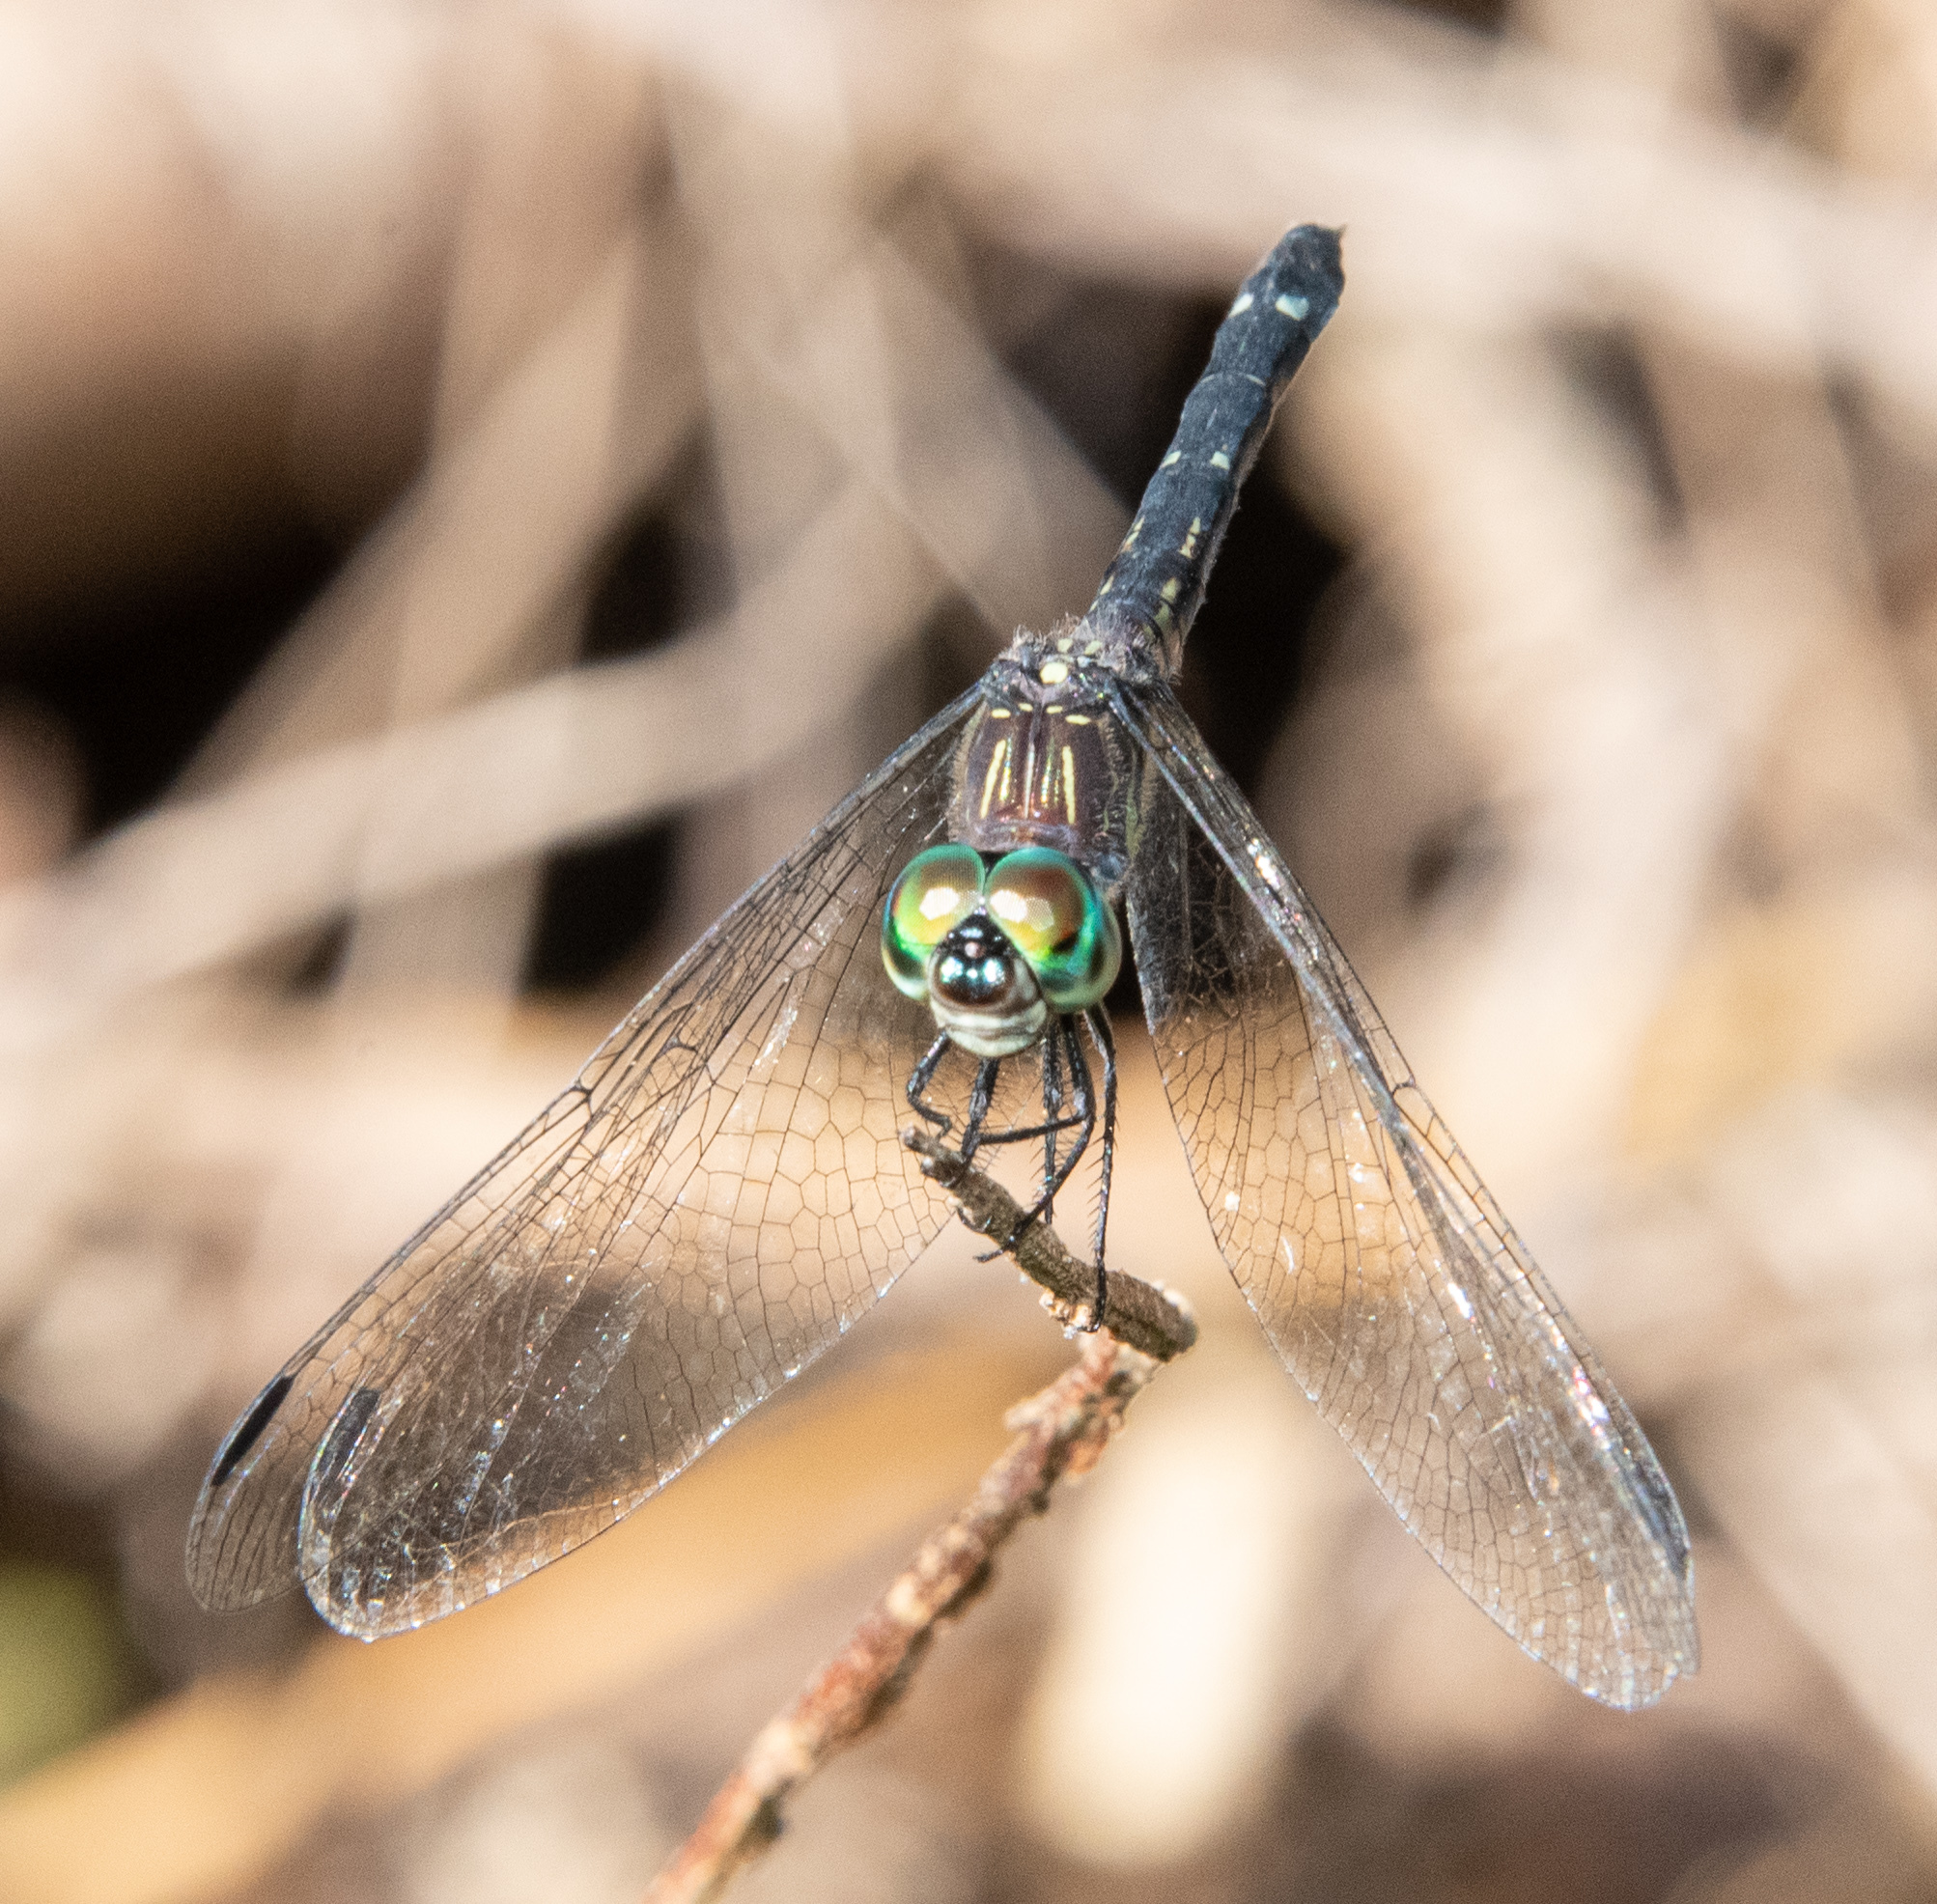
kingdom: Animalia
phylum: Arthropoda
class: Insecta
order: Odonata
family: Libellulidae
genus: Micrathyria
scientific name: Micrathyria didyma
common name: Three-striped dasher
